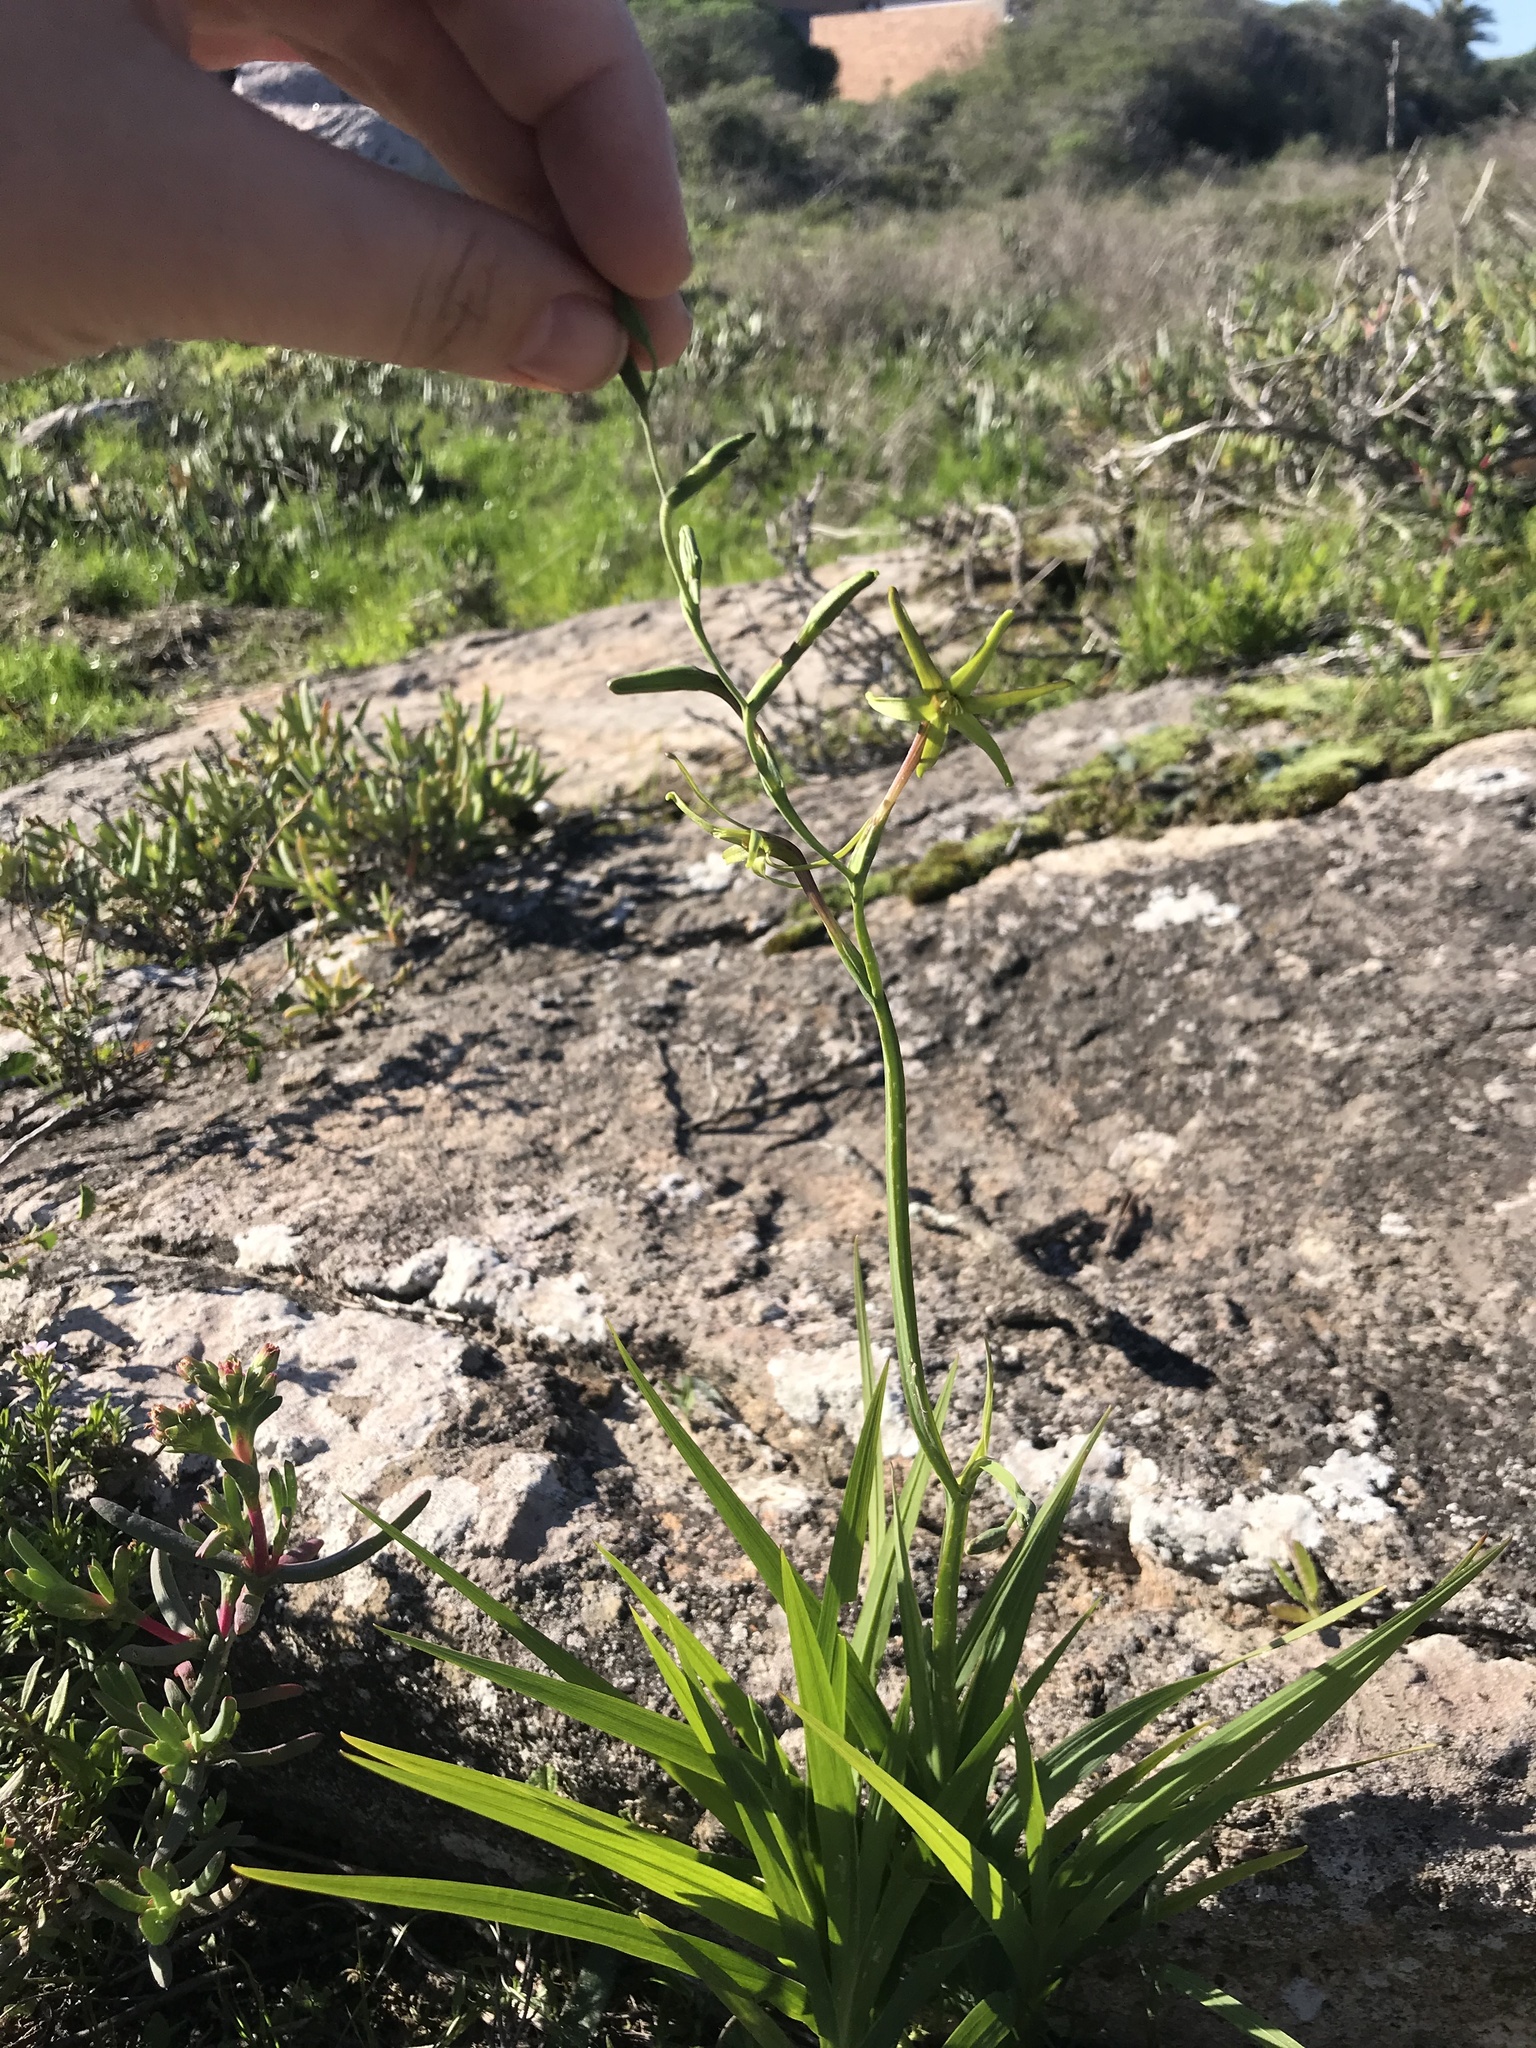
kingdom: Plantae
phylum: Tracheophyta
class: Liliopsida
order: Asparagales
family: Iridaceae
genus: Freesia
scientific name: Freesia viridis
